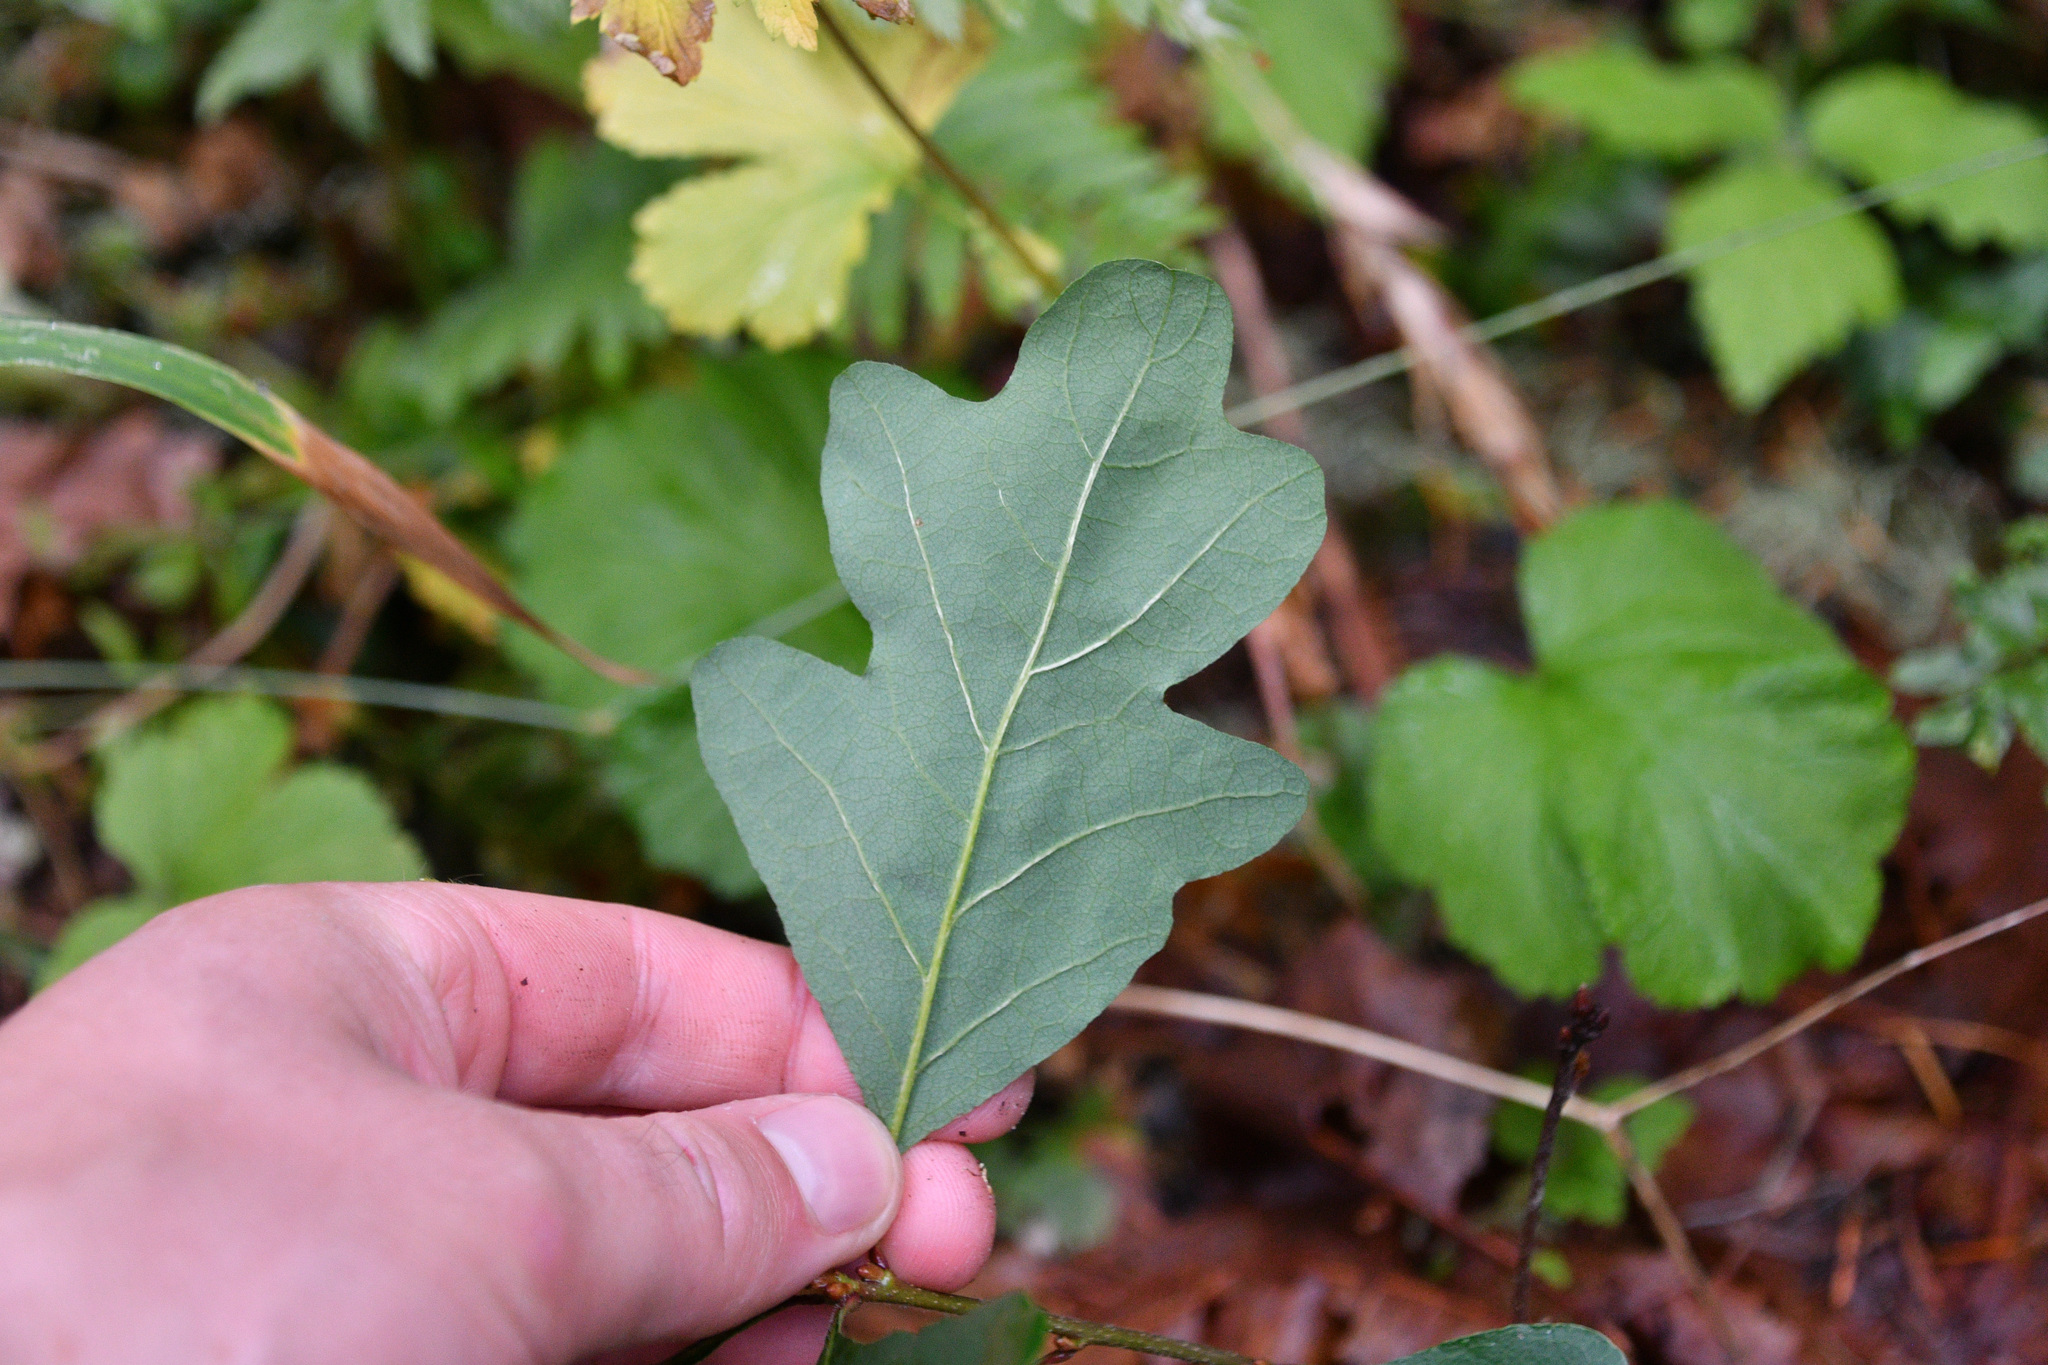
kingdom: Plantae
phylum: Tracheophyta
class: Magnoliopsida
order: Fagales
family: Fagaceae
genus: Quercus
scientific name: Quercus garryana
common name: Garry oak
